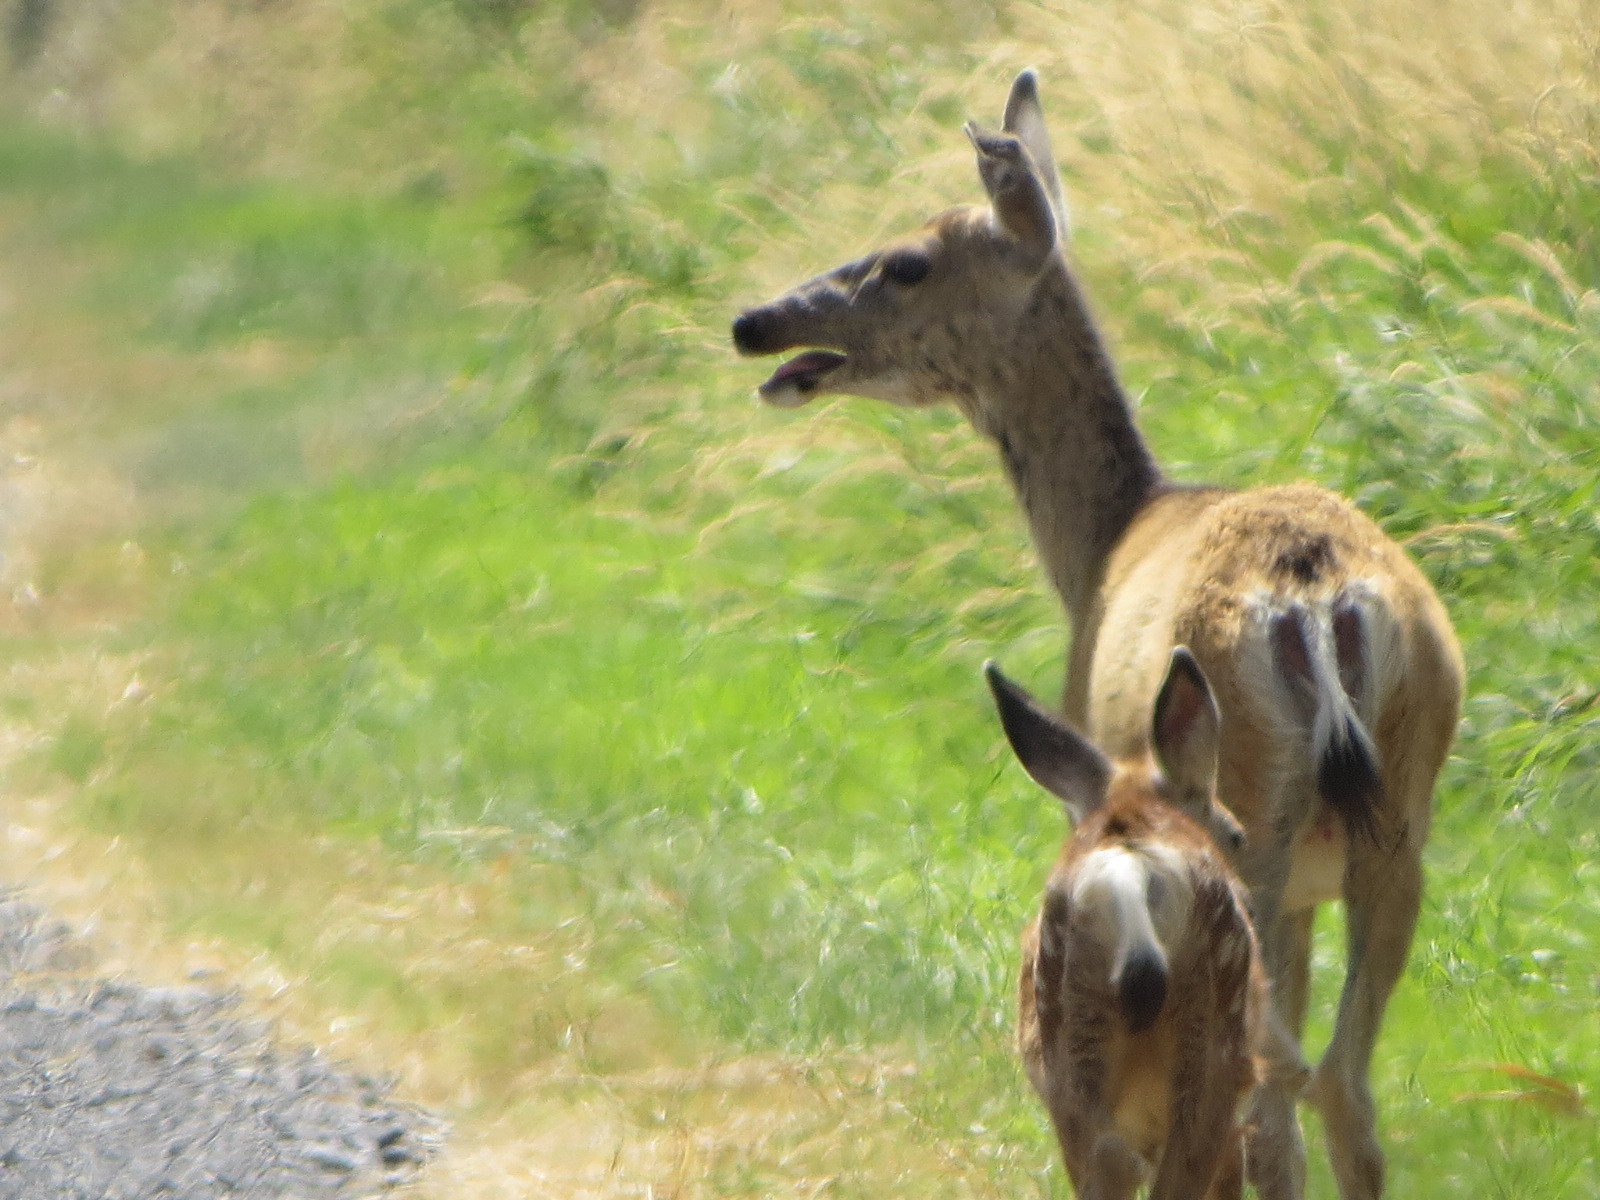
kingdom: Animalia
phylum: Chordata
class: Mammalia
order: Artiodactyla
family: Cervidae
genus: Odocoileus
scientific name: Odocoileus hemionus
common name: Mule deer
